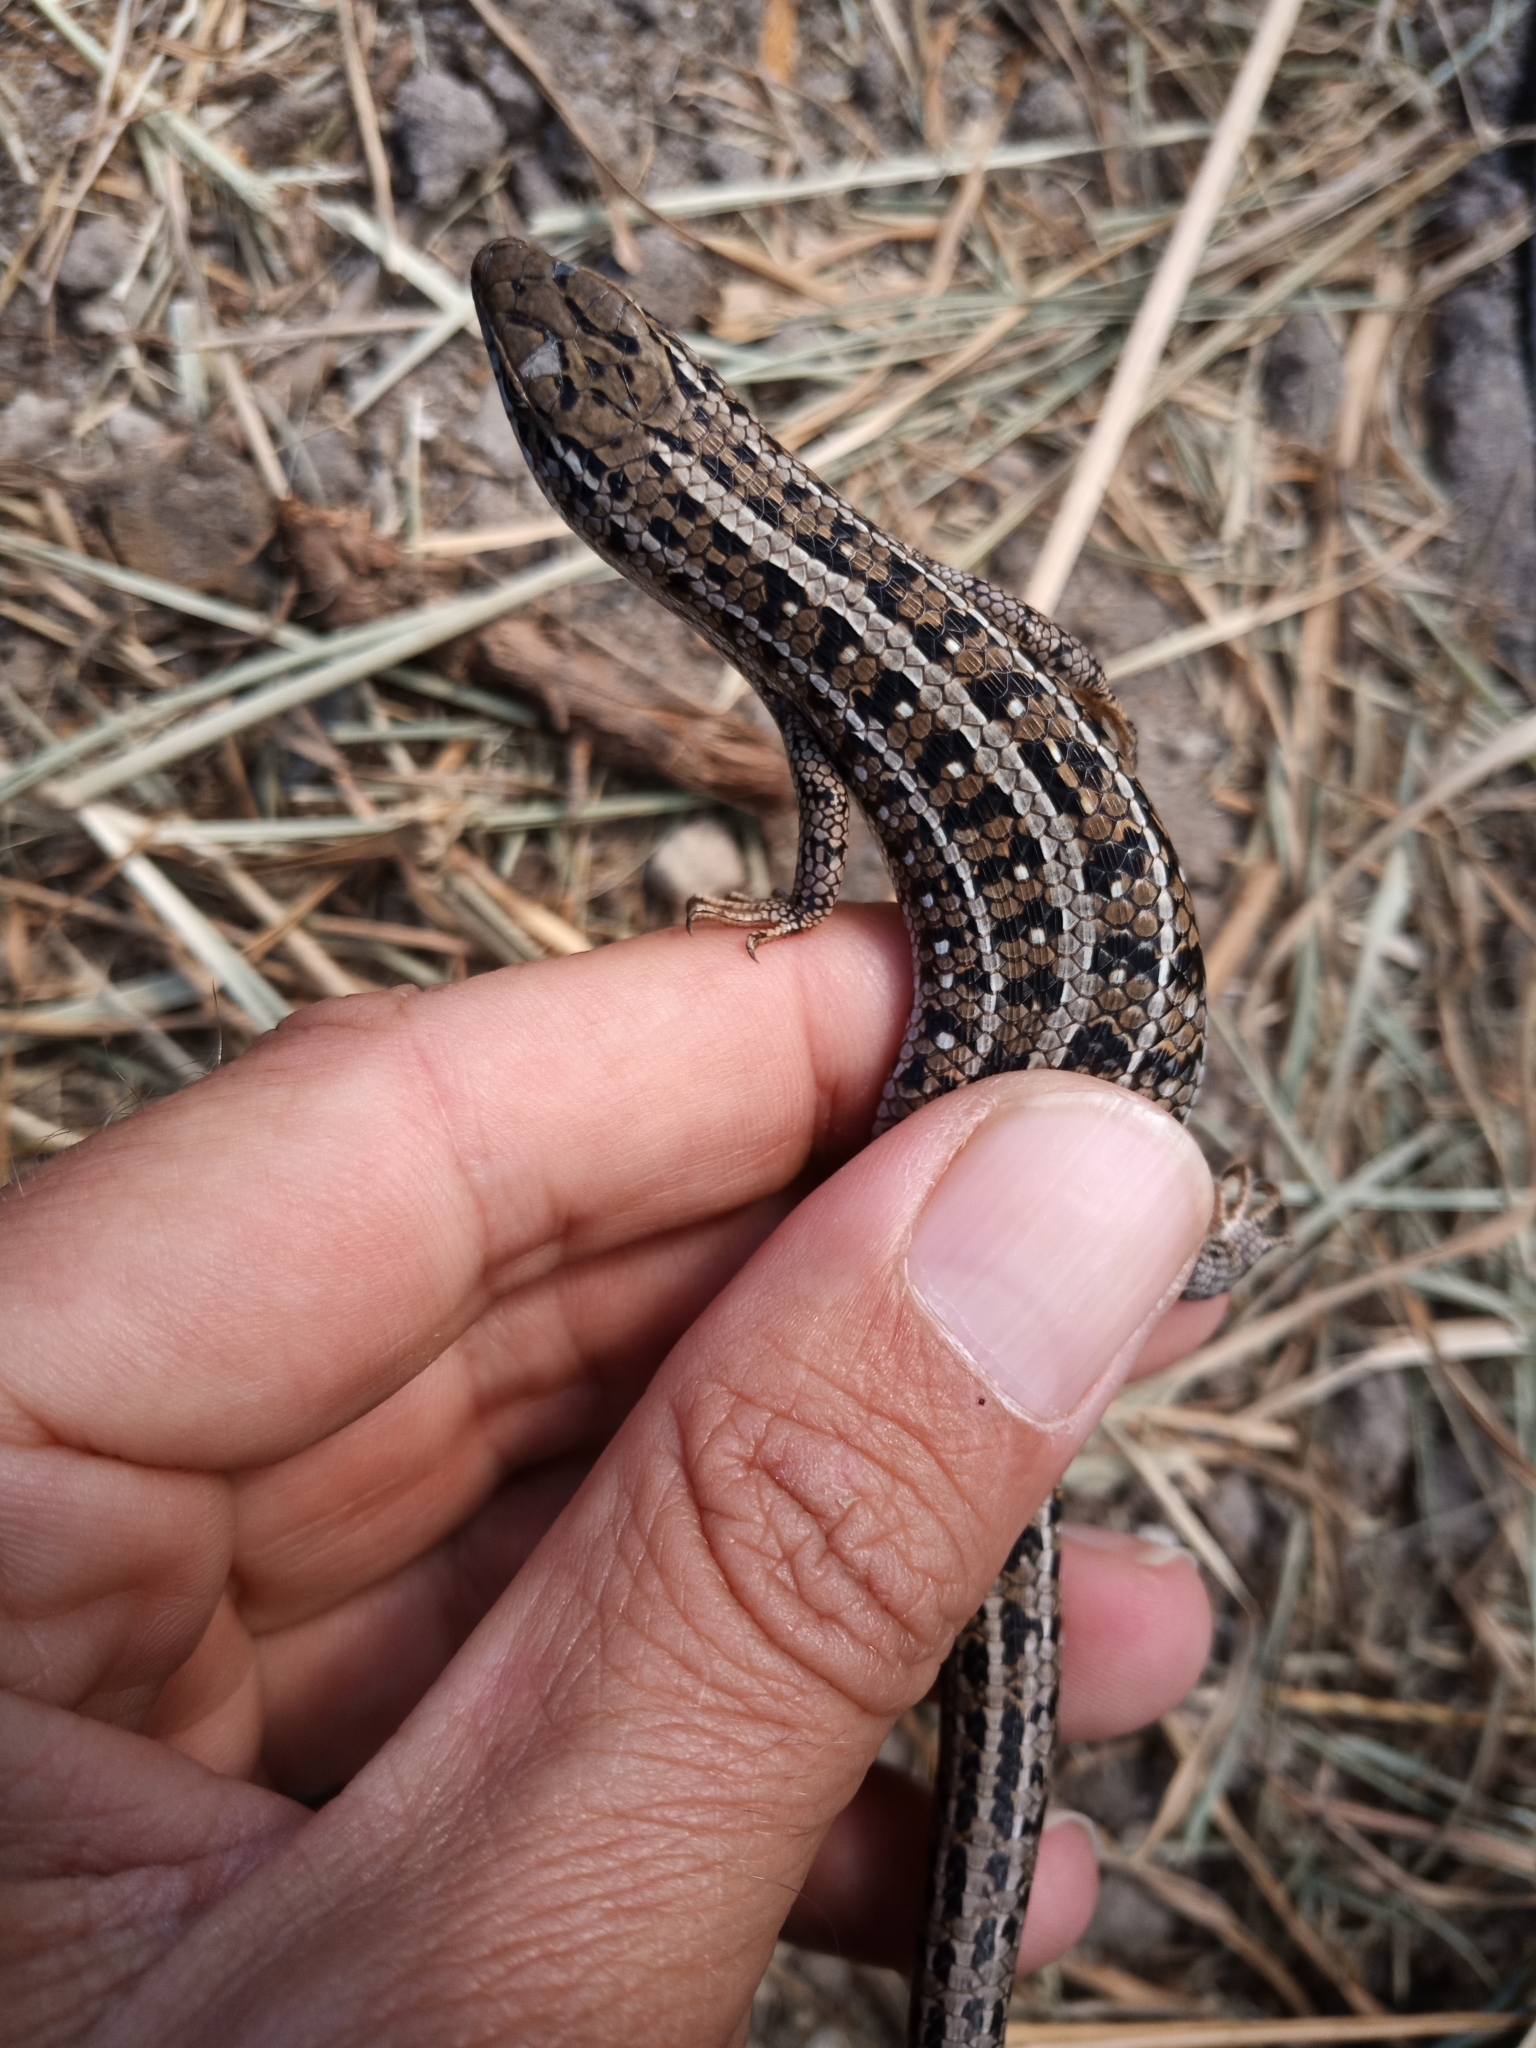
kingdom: Animalia
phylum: Chordata
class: Squamata
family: Scincidae
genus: Trachylepis
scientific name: Trachylepis capensis
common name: Cape skink
